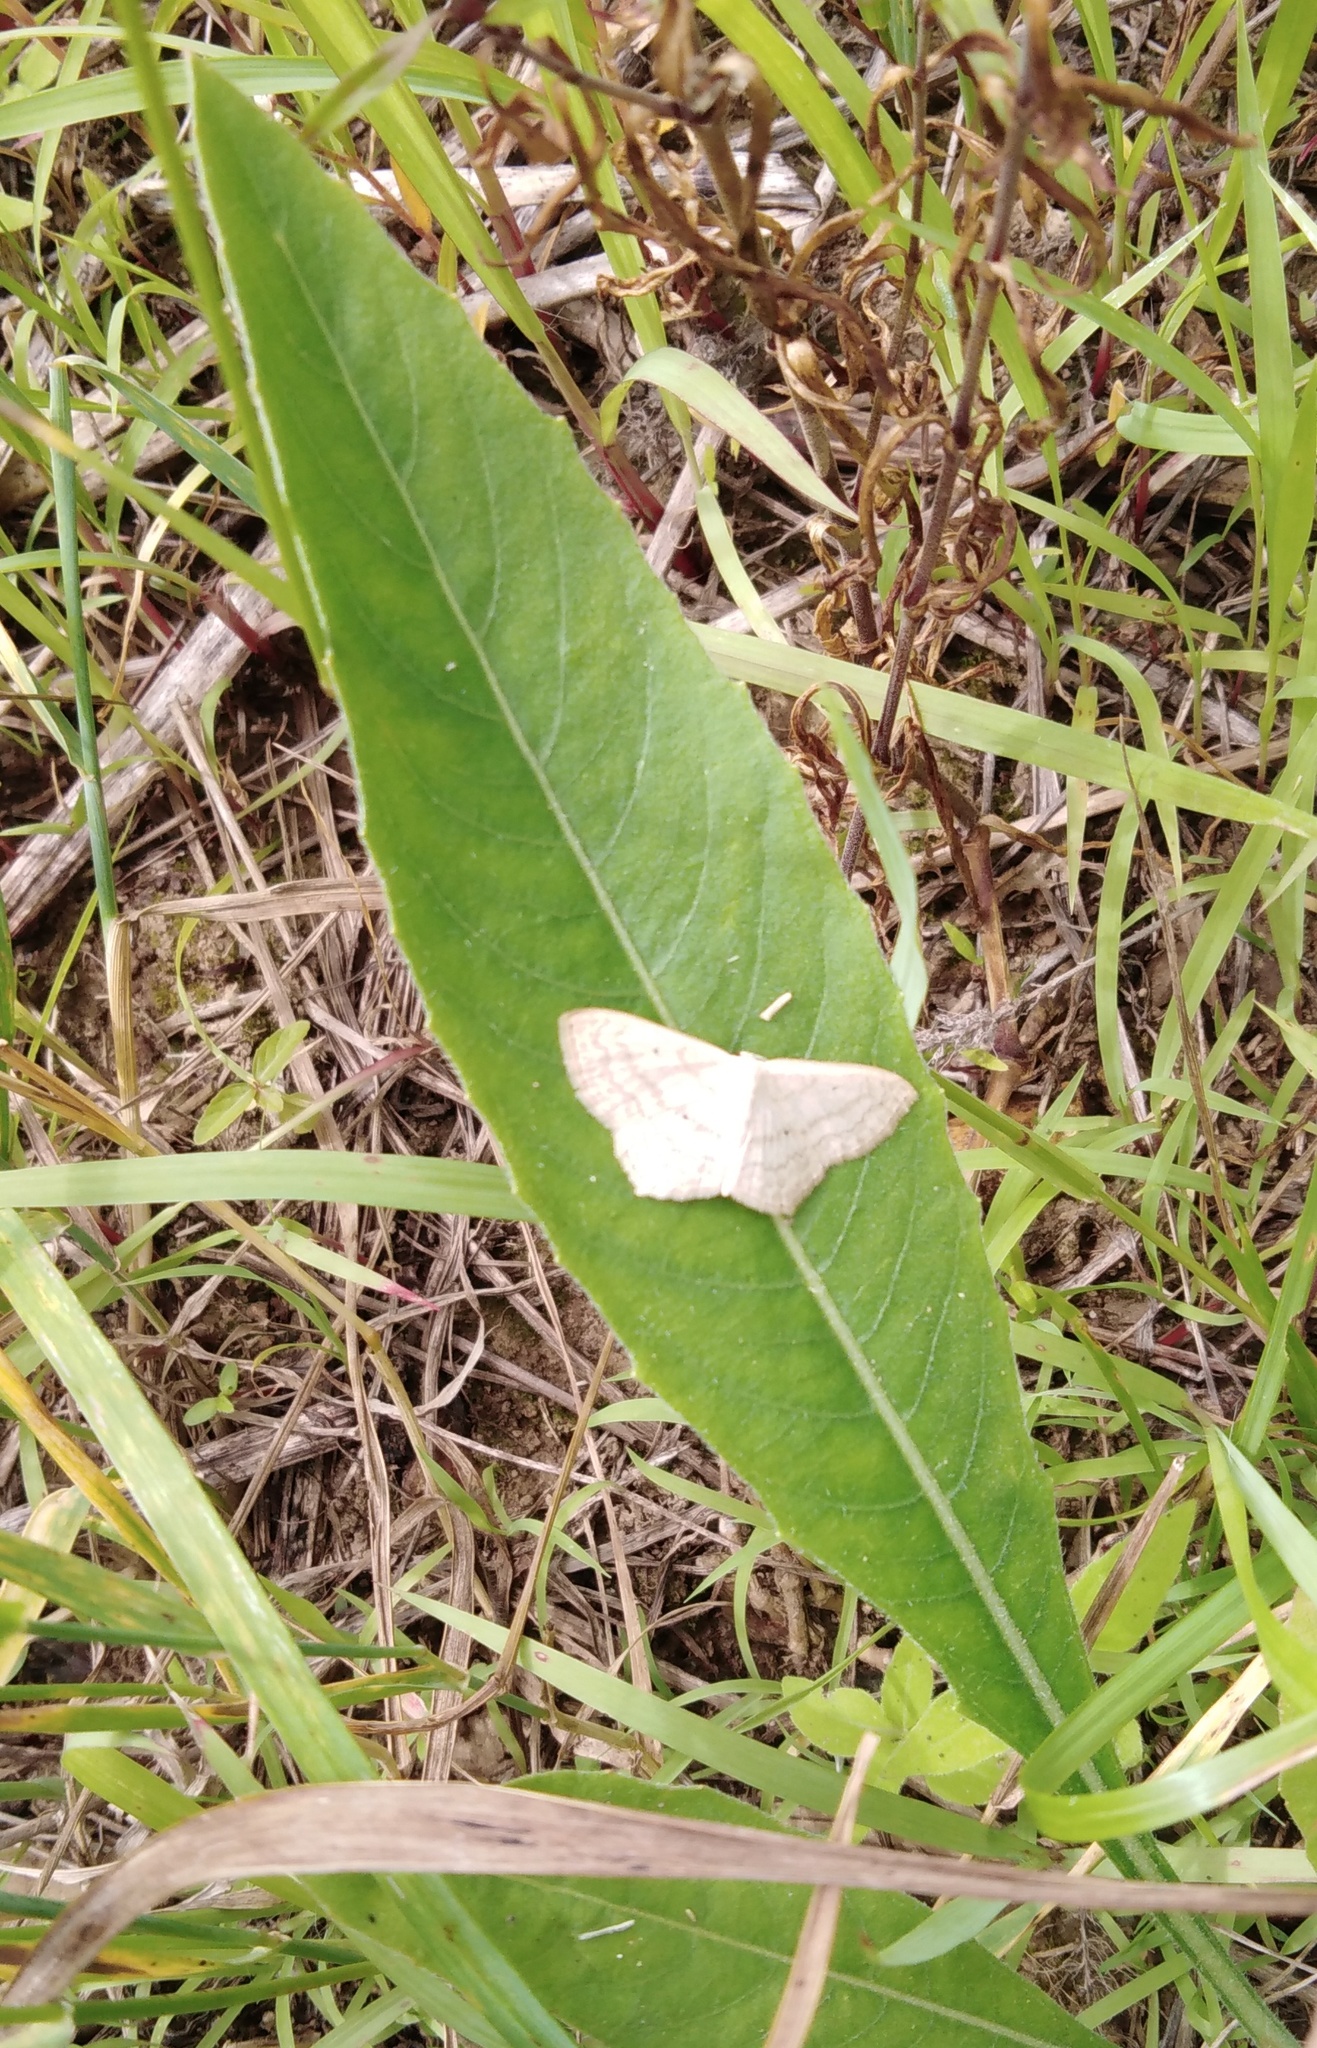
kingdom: Animalia
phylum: Arthropoda
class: Insecta
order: Lepidoptera
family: Geometridae
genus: Scopula
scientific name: Scopula nigropunctata
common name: Sub-angled wave
